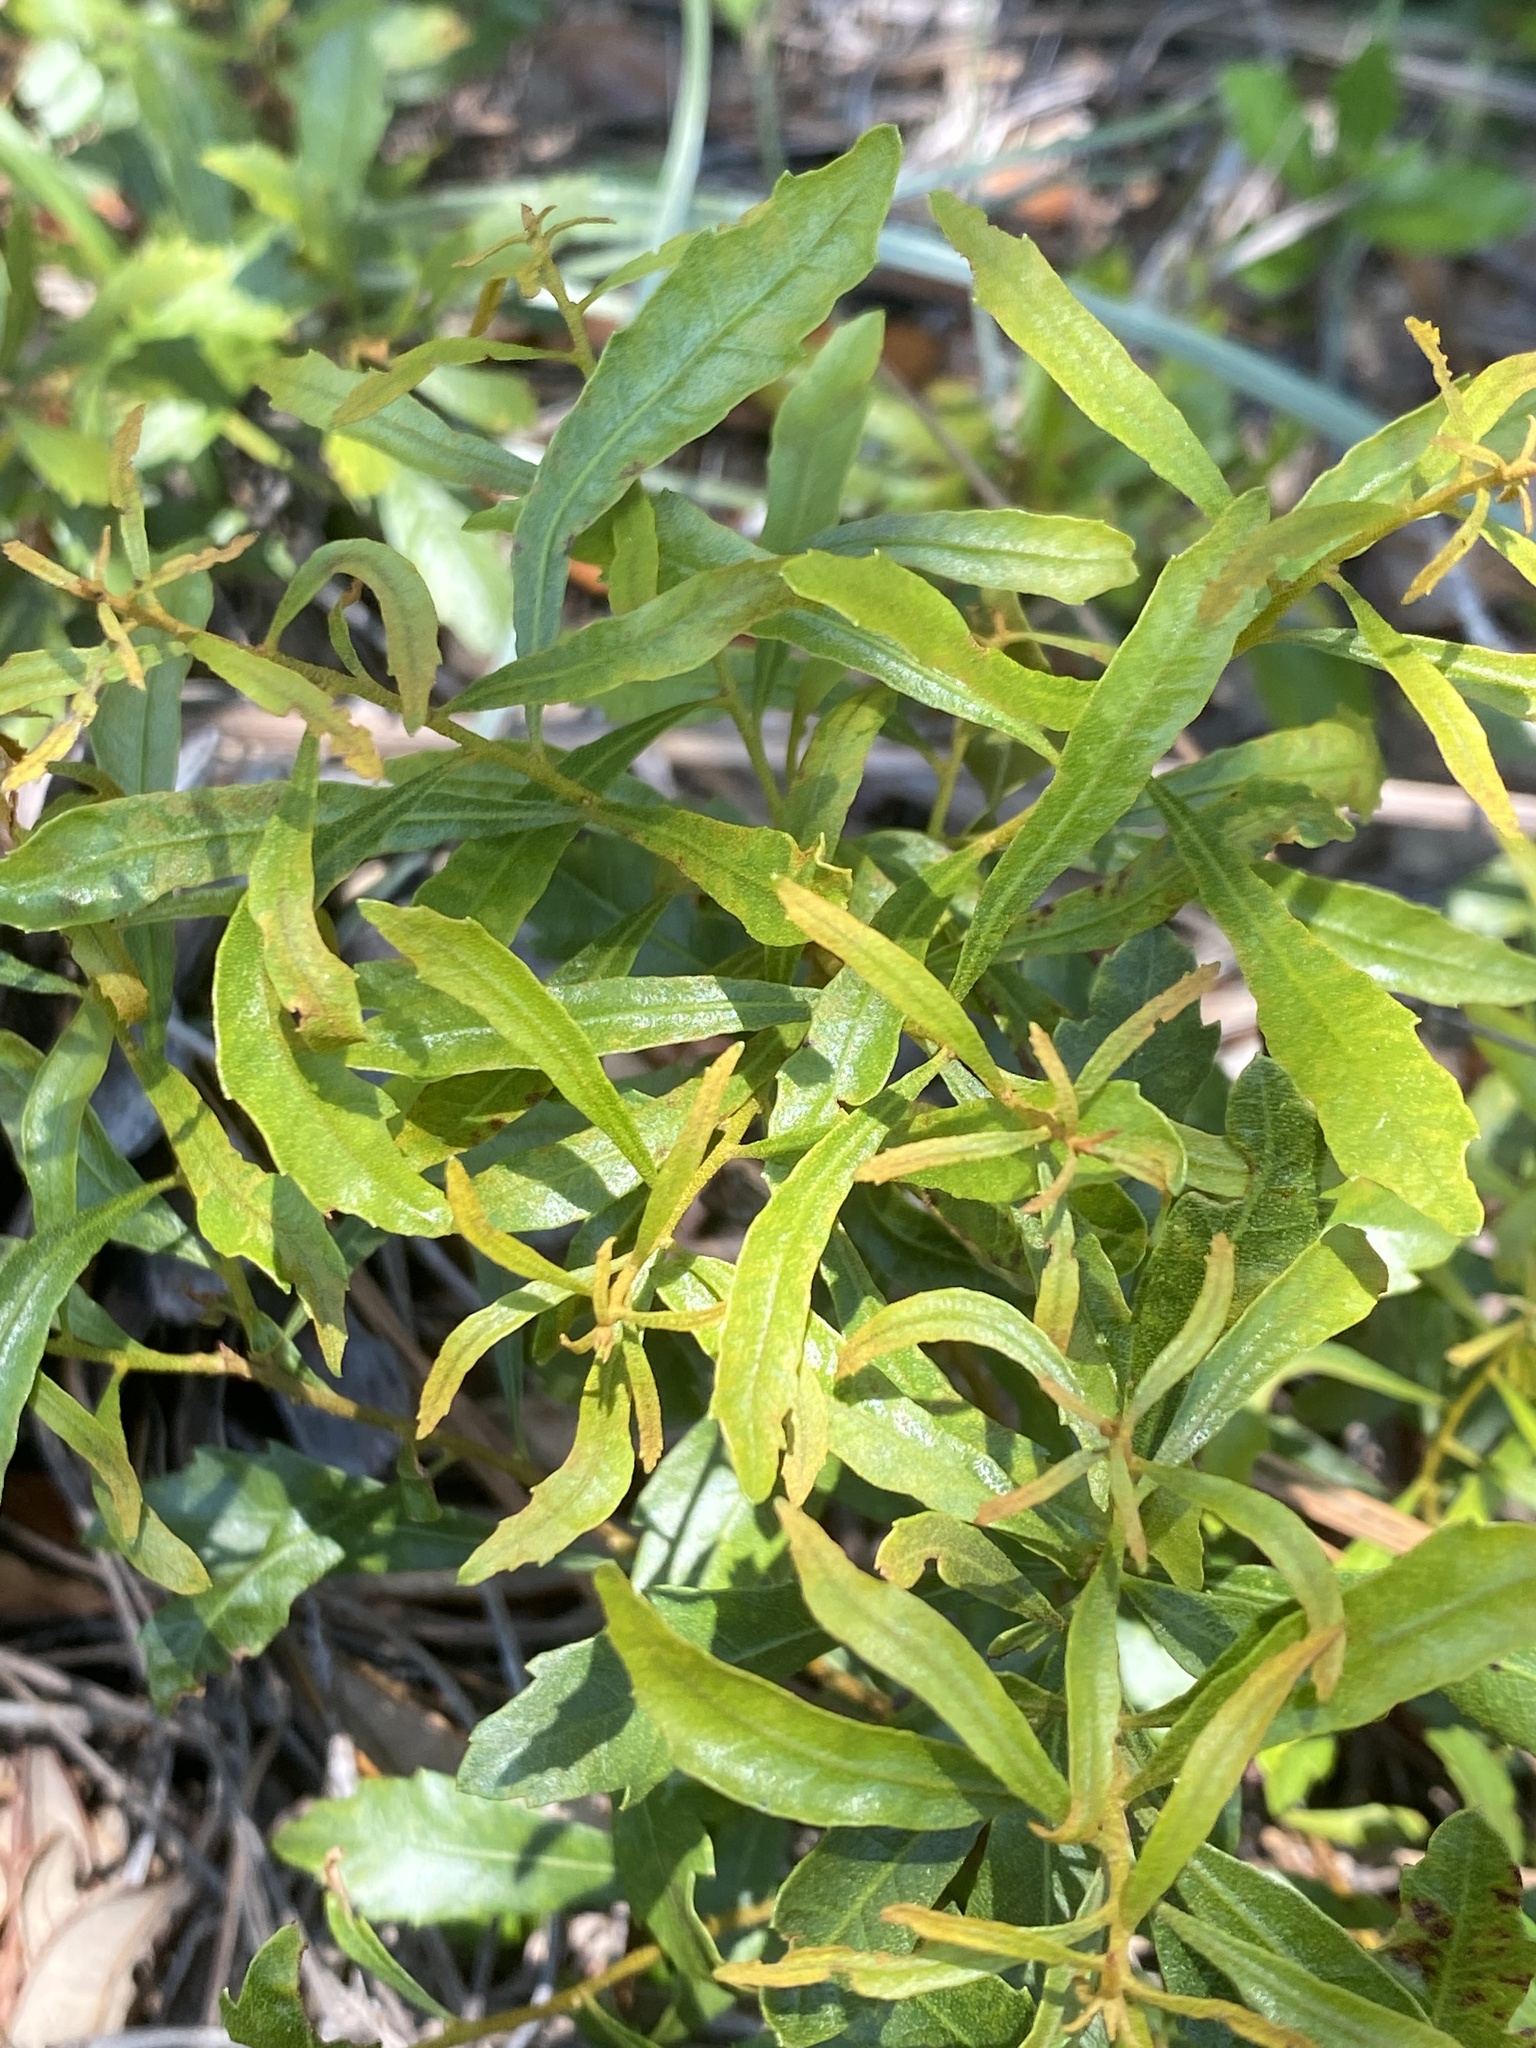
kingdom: Plantae
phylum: Tracheophyta
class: Magnoliopsida
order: Fagales
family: Myricaceae
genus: Morella
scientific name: Morella cerifera
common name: Wax myrtle
